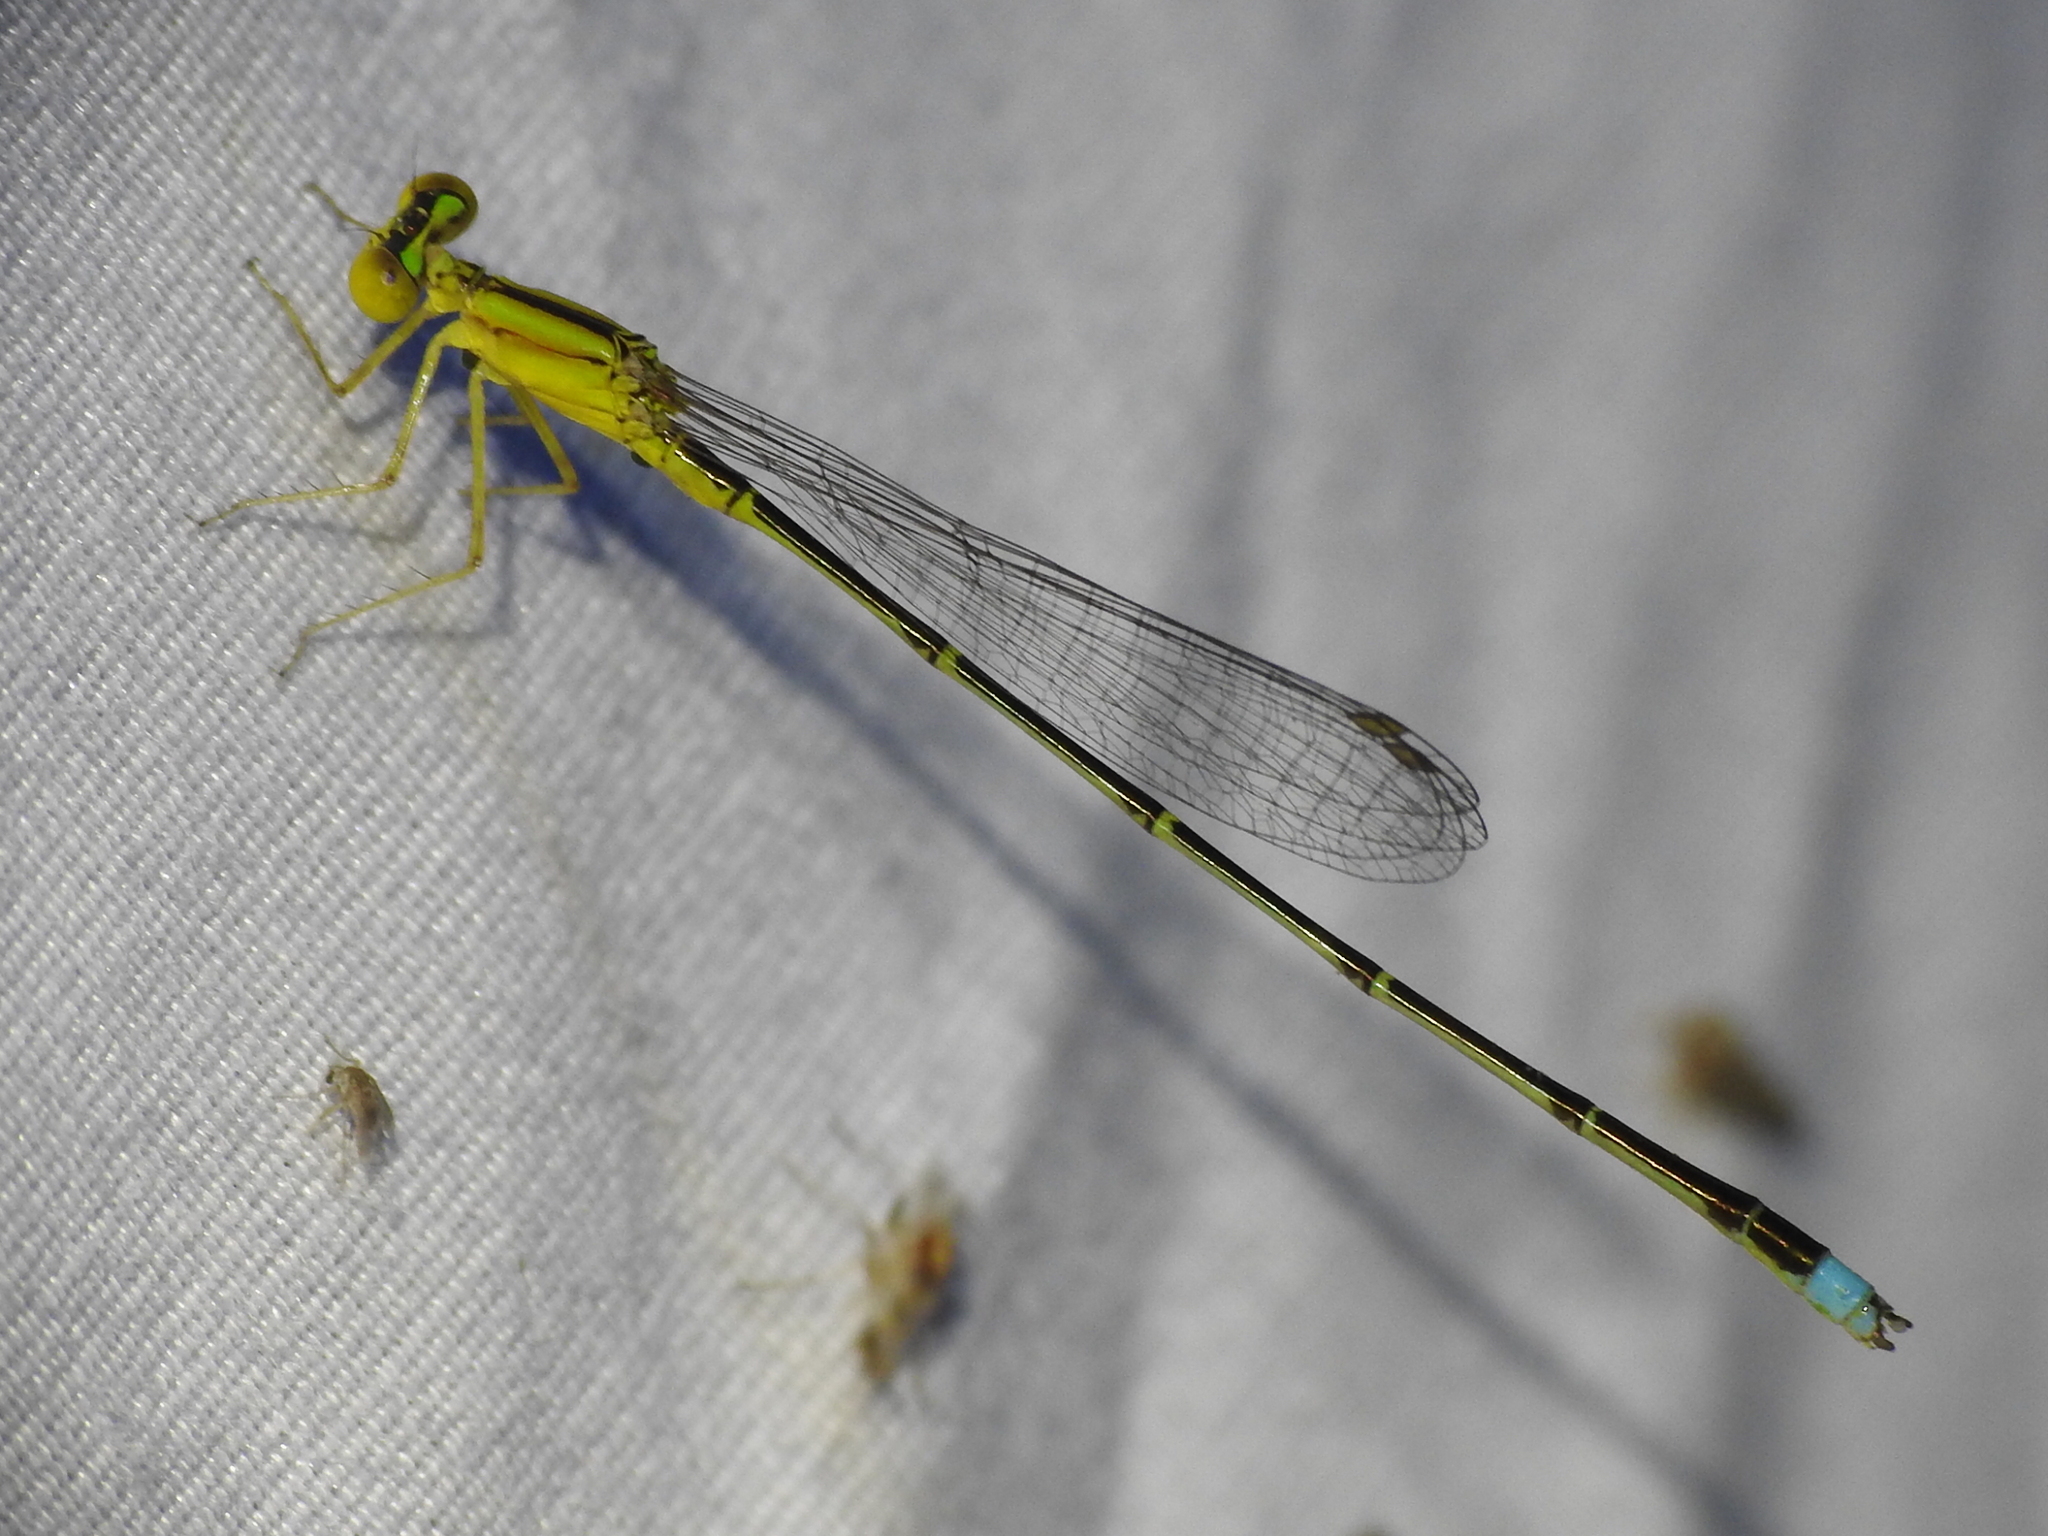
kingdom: Animalia
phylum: Arthropoda
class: Insecta
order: Odonata
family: Coenagrionidae
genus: Enallagma
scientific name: Enallagma vesperum
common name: Vesper bluet
